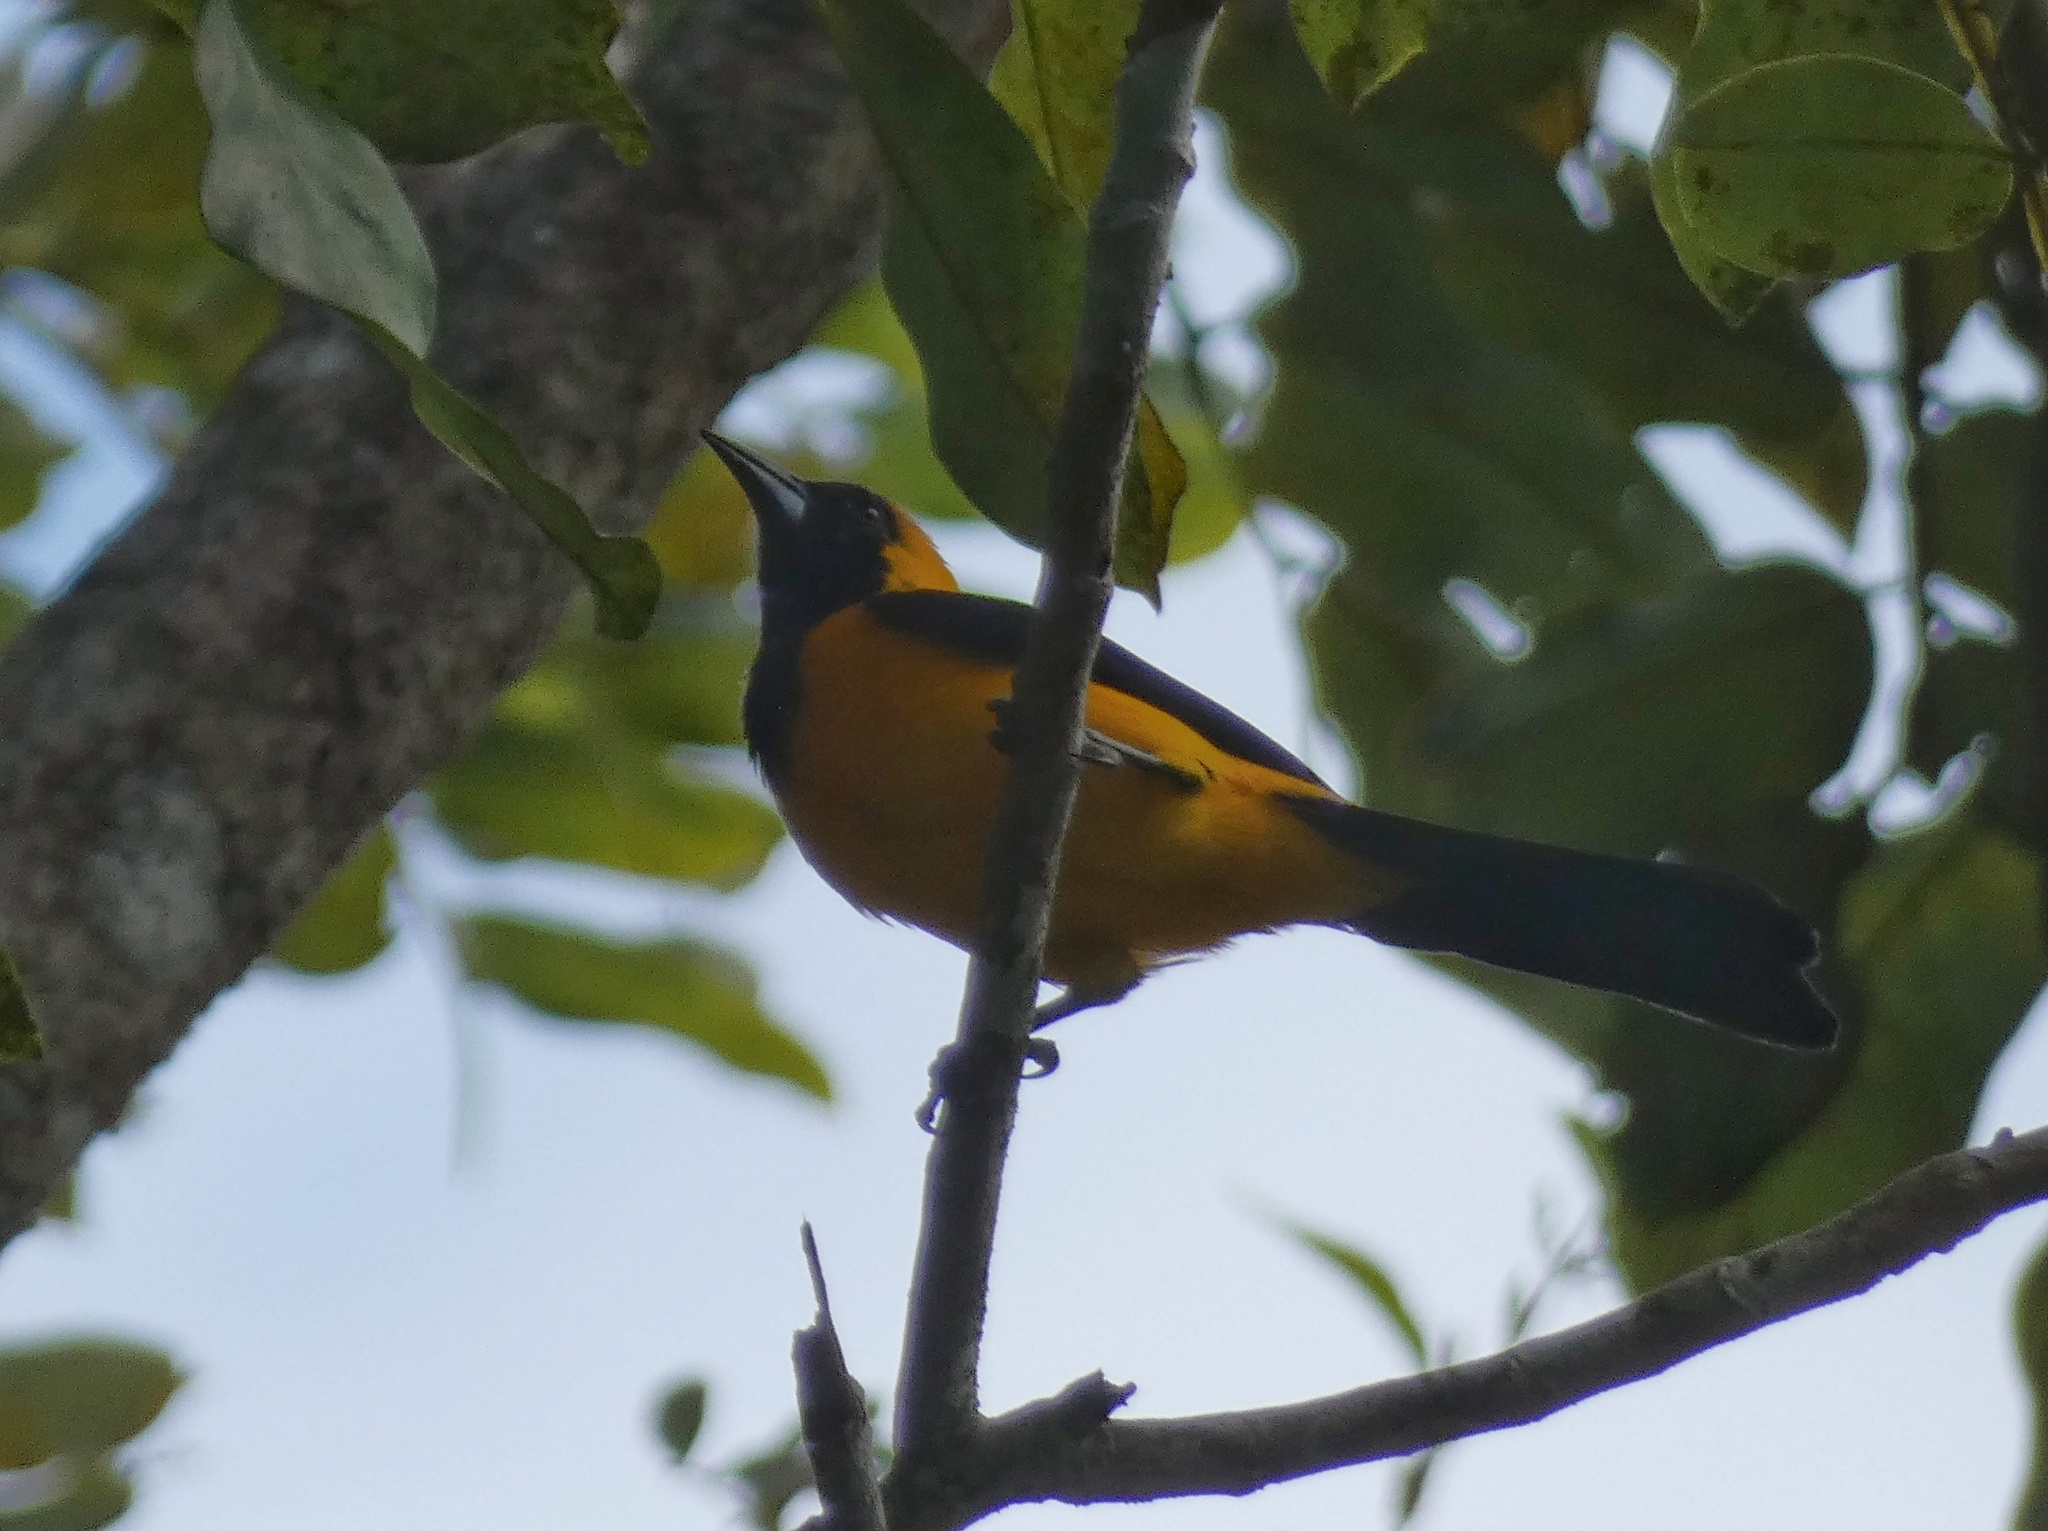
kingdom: Animalia
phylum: Chordata
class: Aves
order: Passeriformes
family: Icteridae
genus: Icterus
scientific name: Icterus chrysater
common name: Yellow-backed oriole
